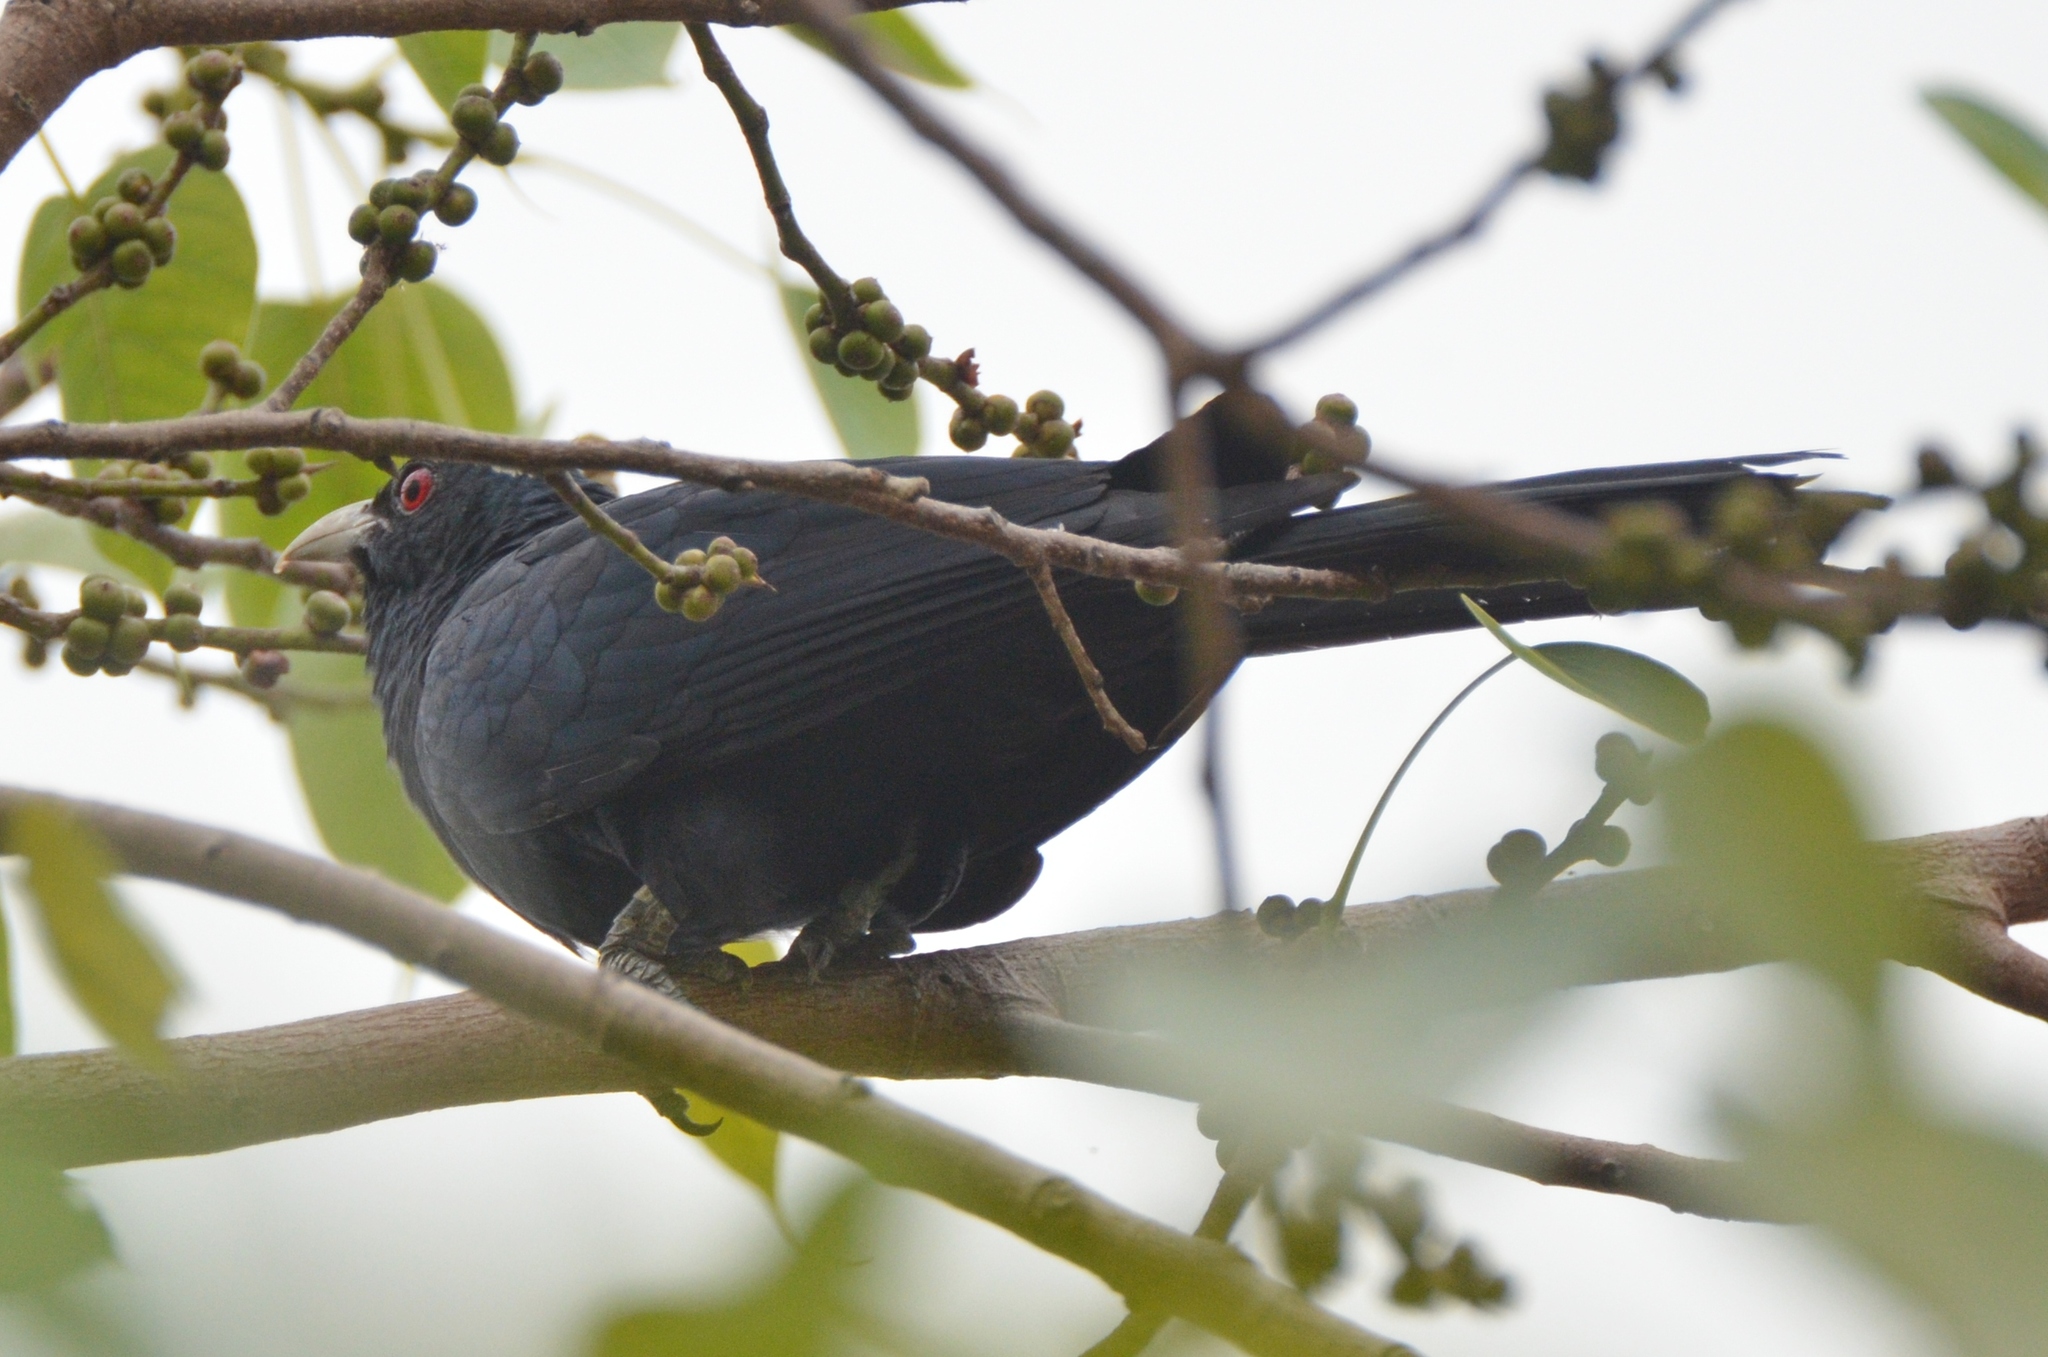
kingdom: Animalia
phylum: Chordata
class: Aves
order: Cuculiformes
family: Cuculidae
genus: Eudynamys
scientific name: Eudynamys scolopaceus
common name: Asian koel
